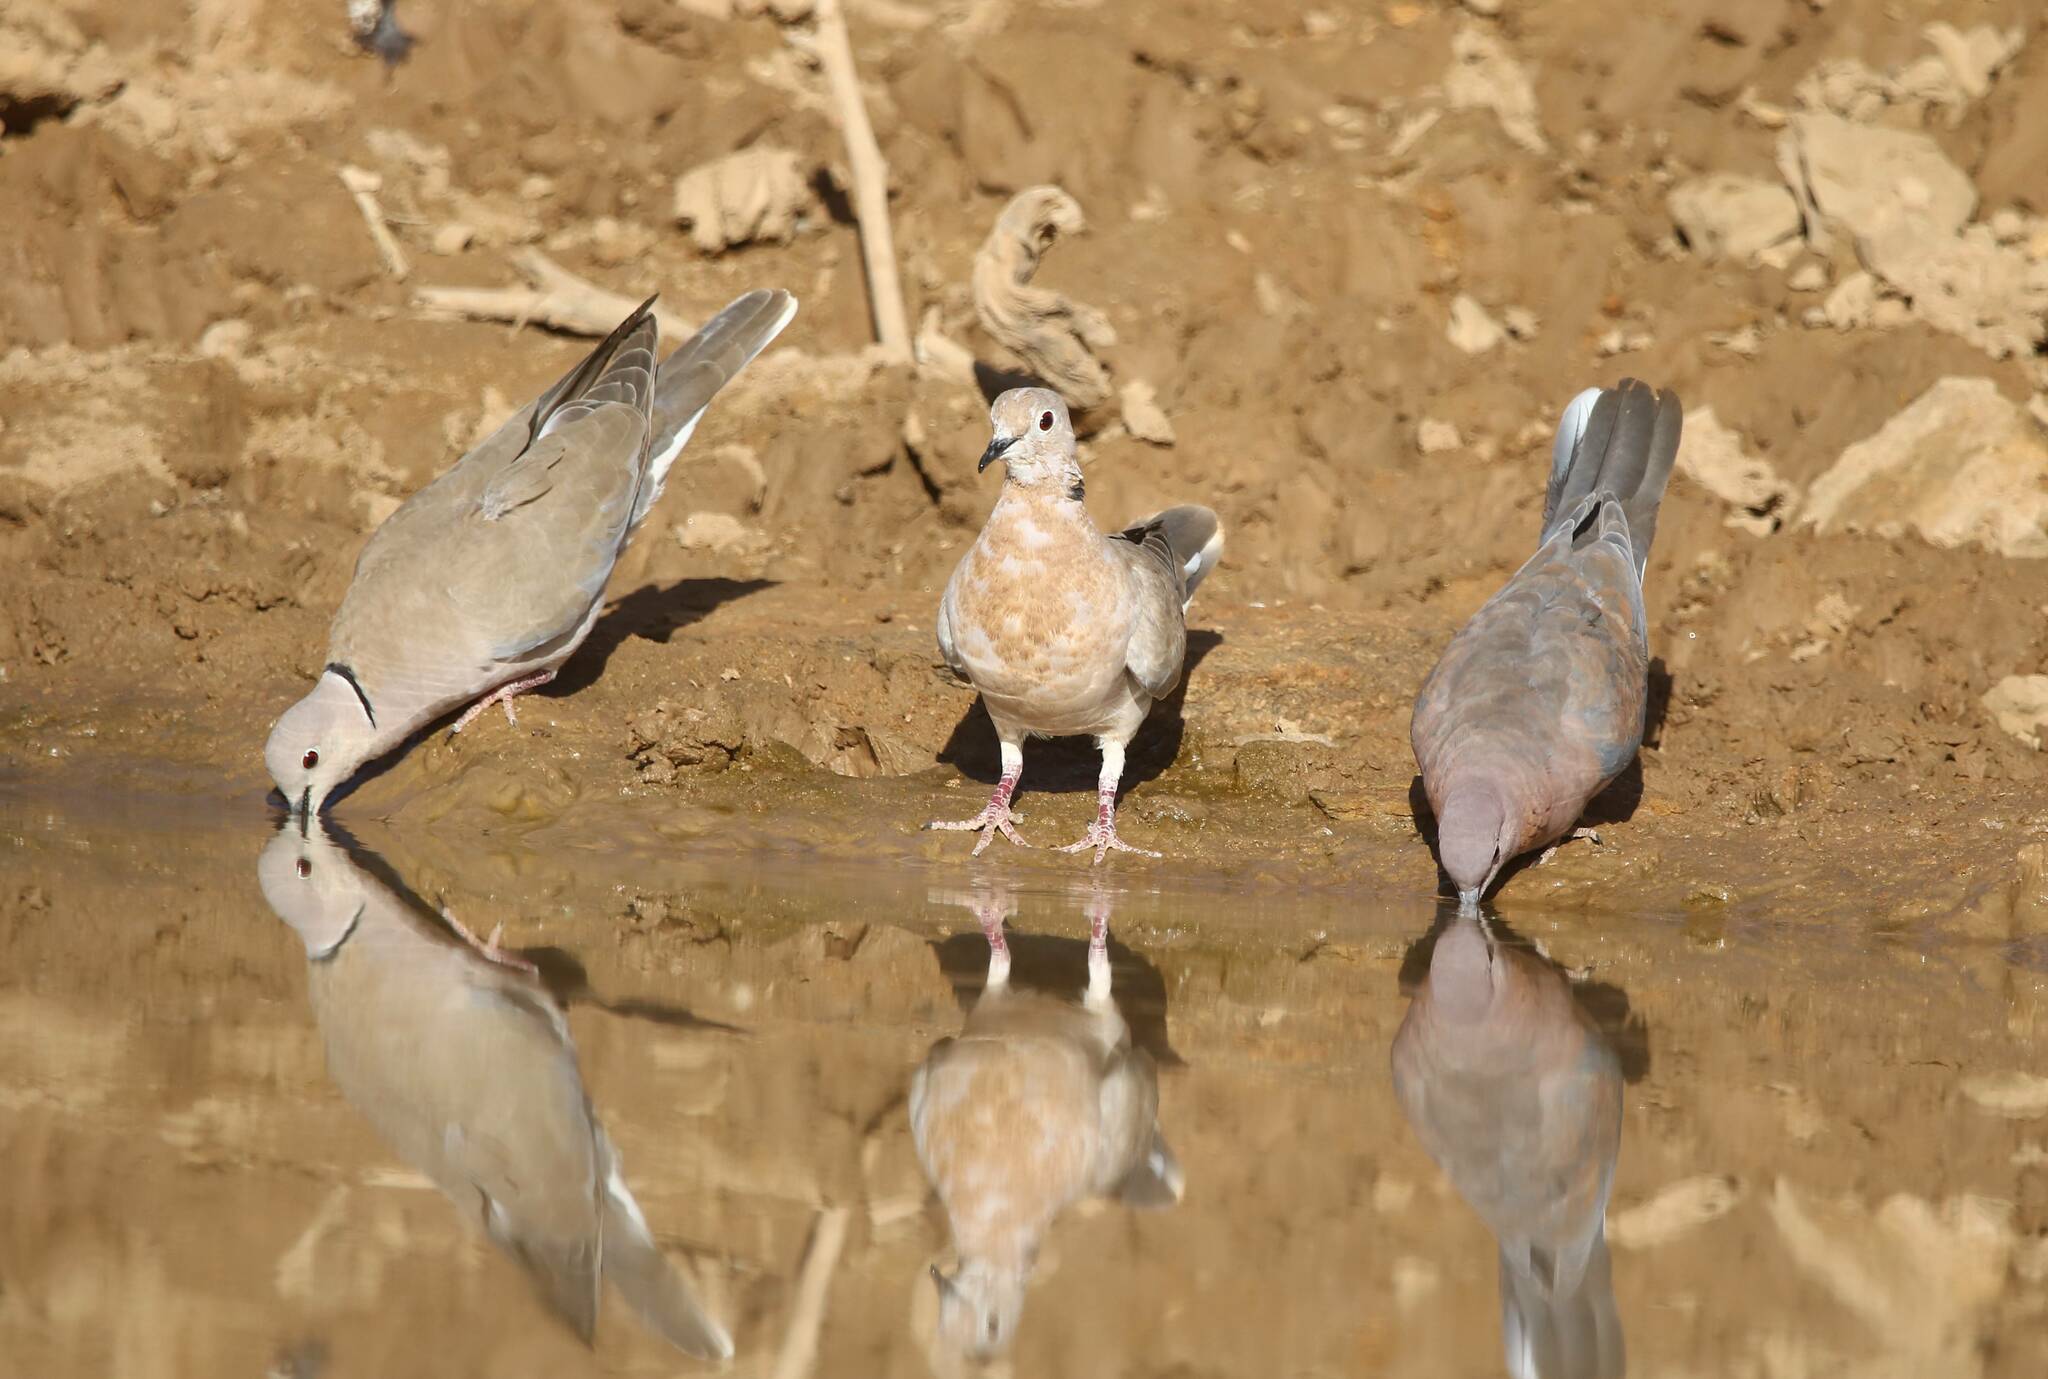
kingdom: Animalia
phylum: Chordata
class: Aves
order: Columbiformes
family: Columbidae
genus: Streptopelia
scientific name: Streptopelia roseogrisea
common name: African collared dove
